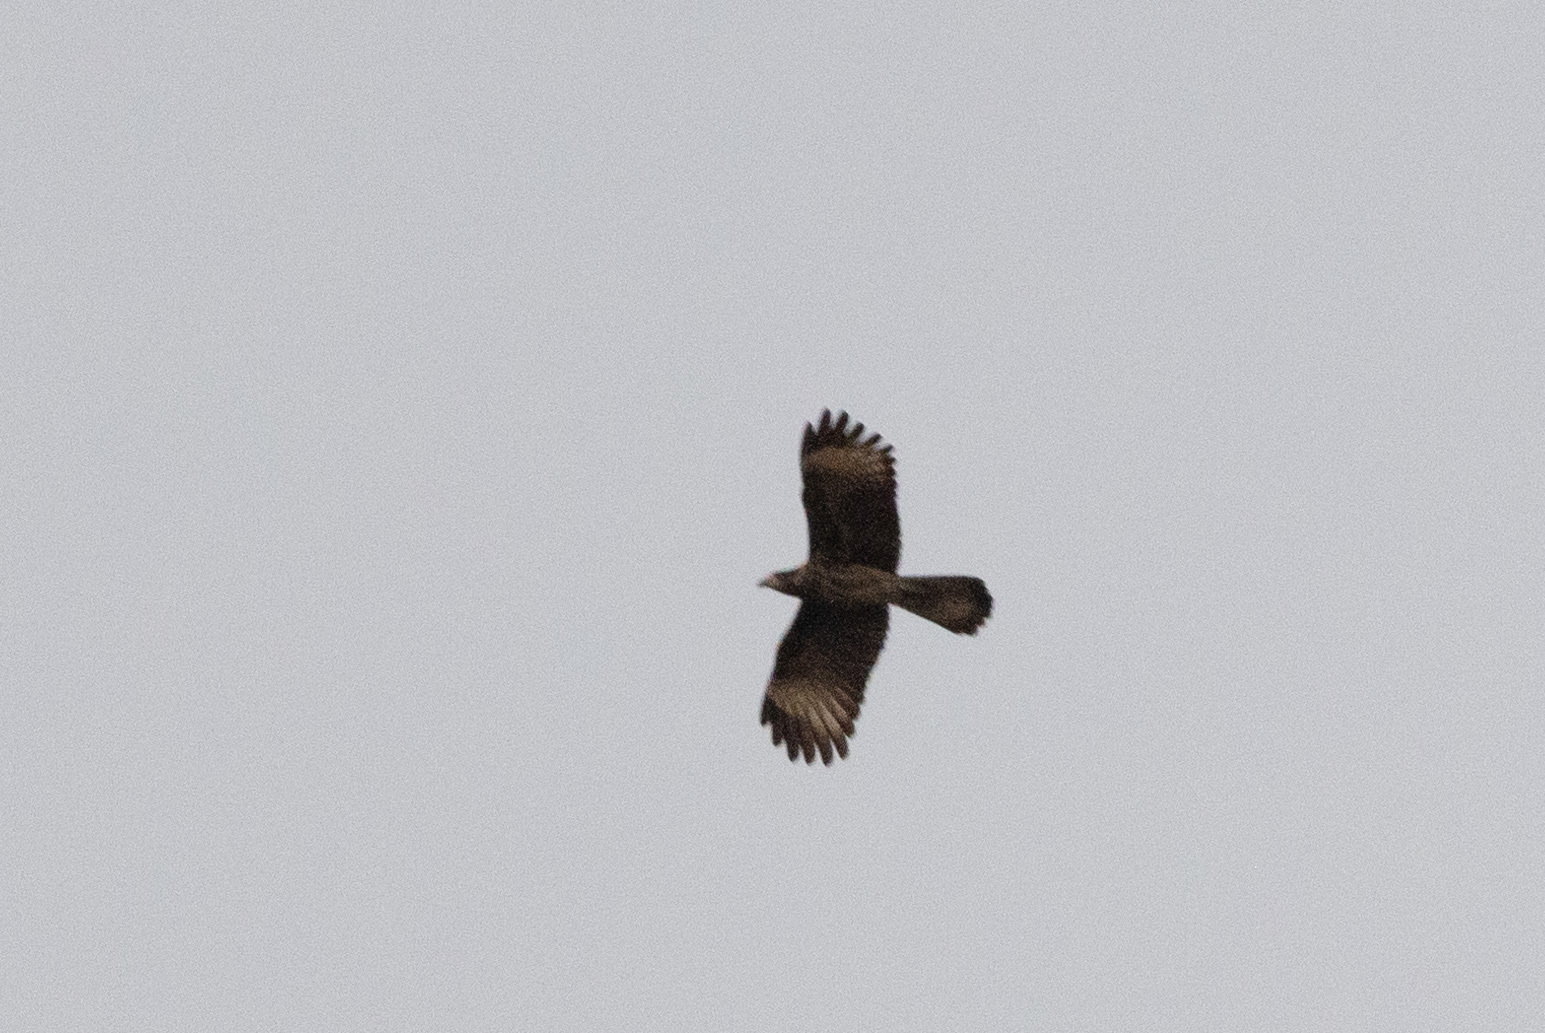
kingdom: Animalia
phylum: Chordata
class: Aves
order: Falconiformes
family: Falconidae
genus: Daptrius
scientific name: Daptrius
